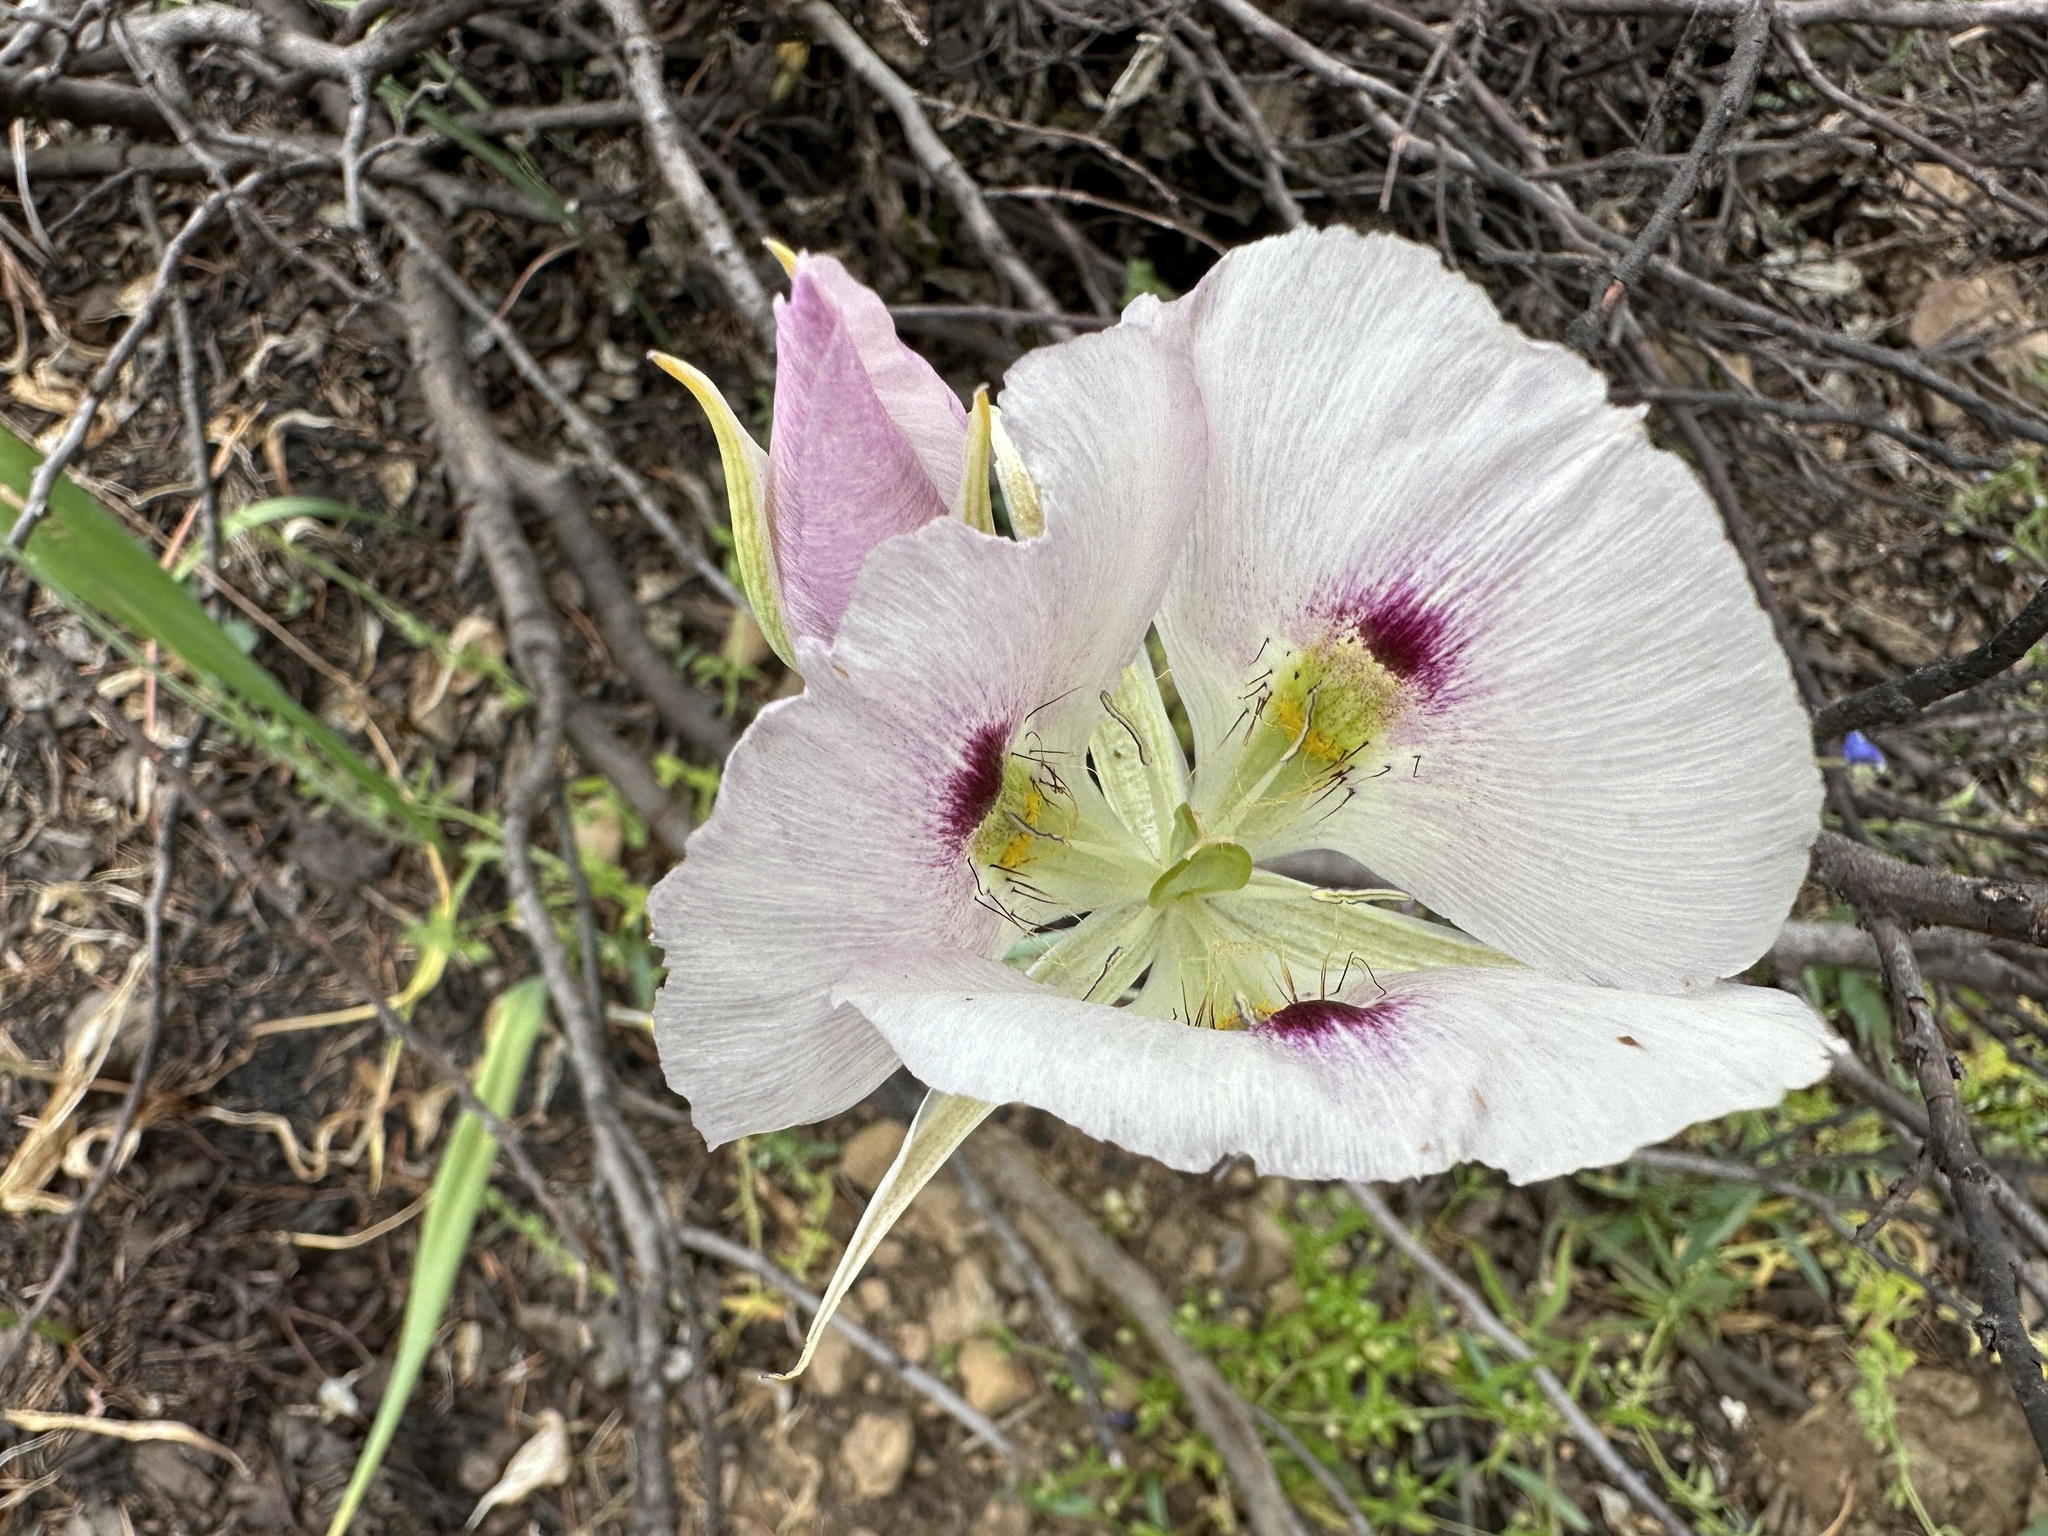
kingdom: Plantae
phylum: Tracheophyta
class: Liliopsida
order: Liliales
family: Liliaceae
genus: Calochortus
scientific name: Calochortus eurycarpus
